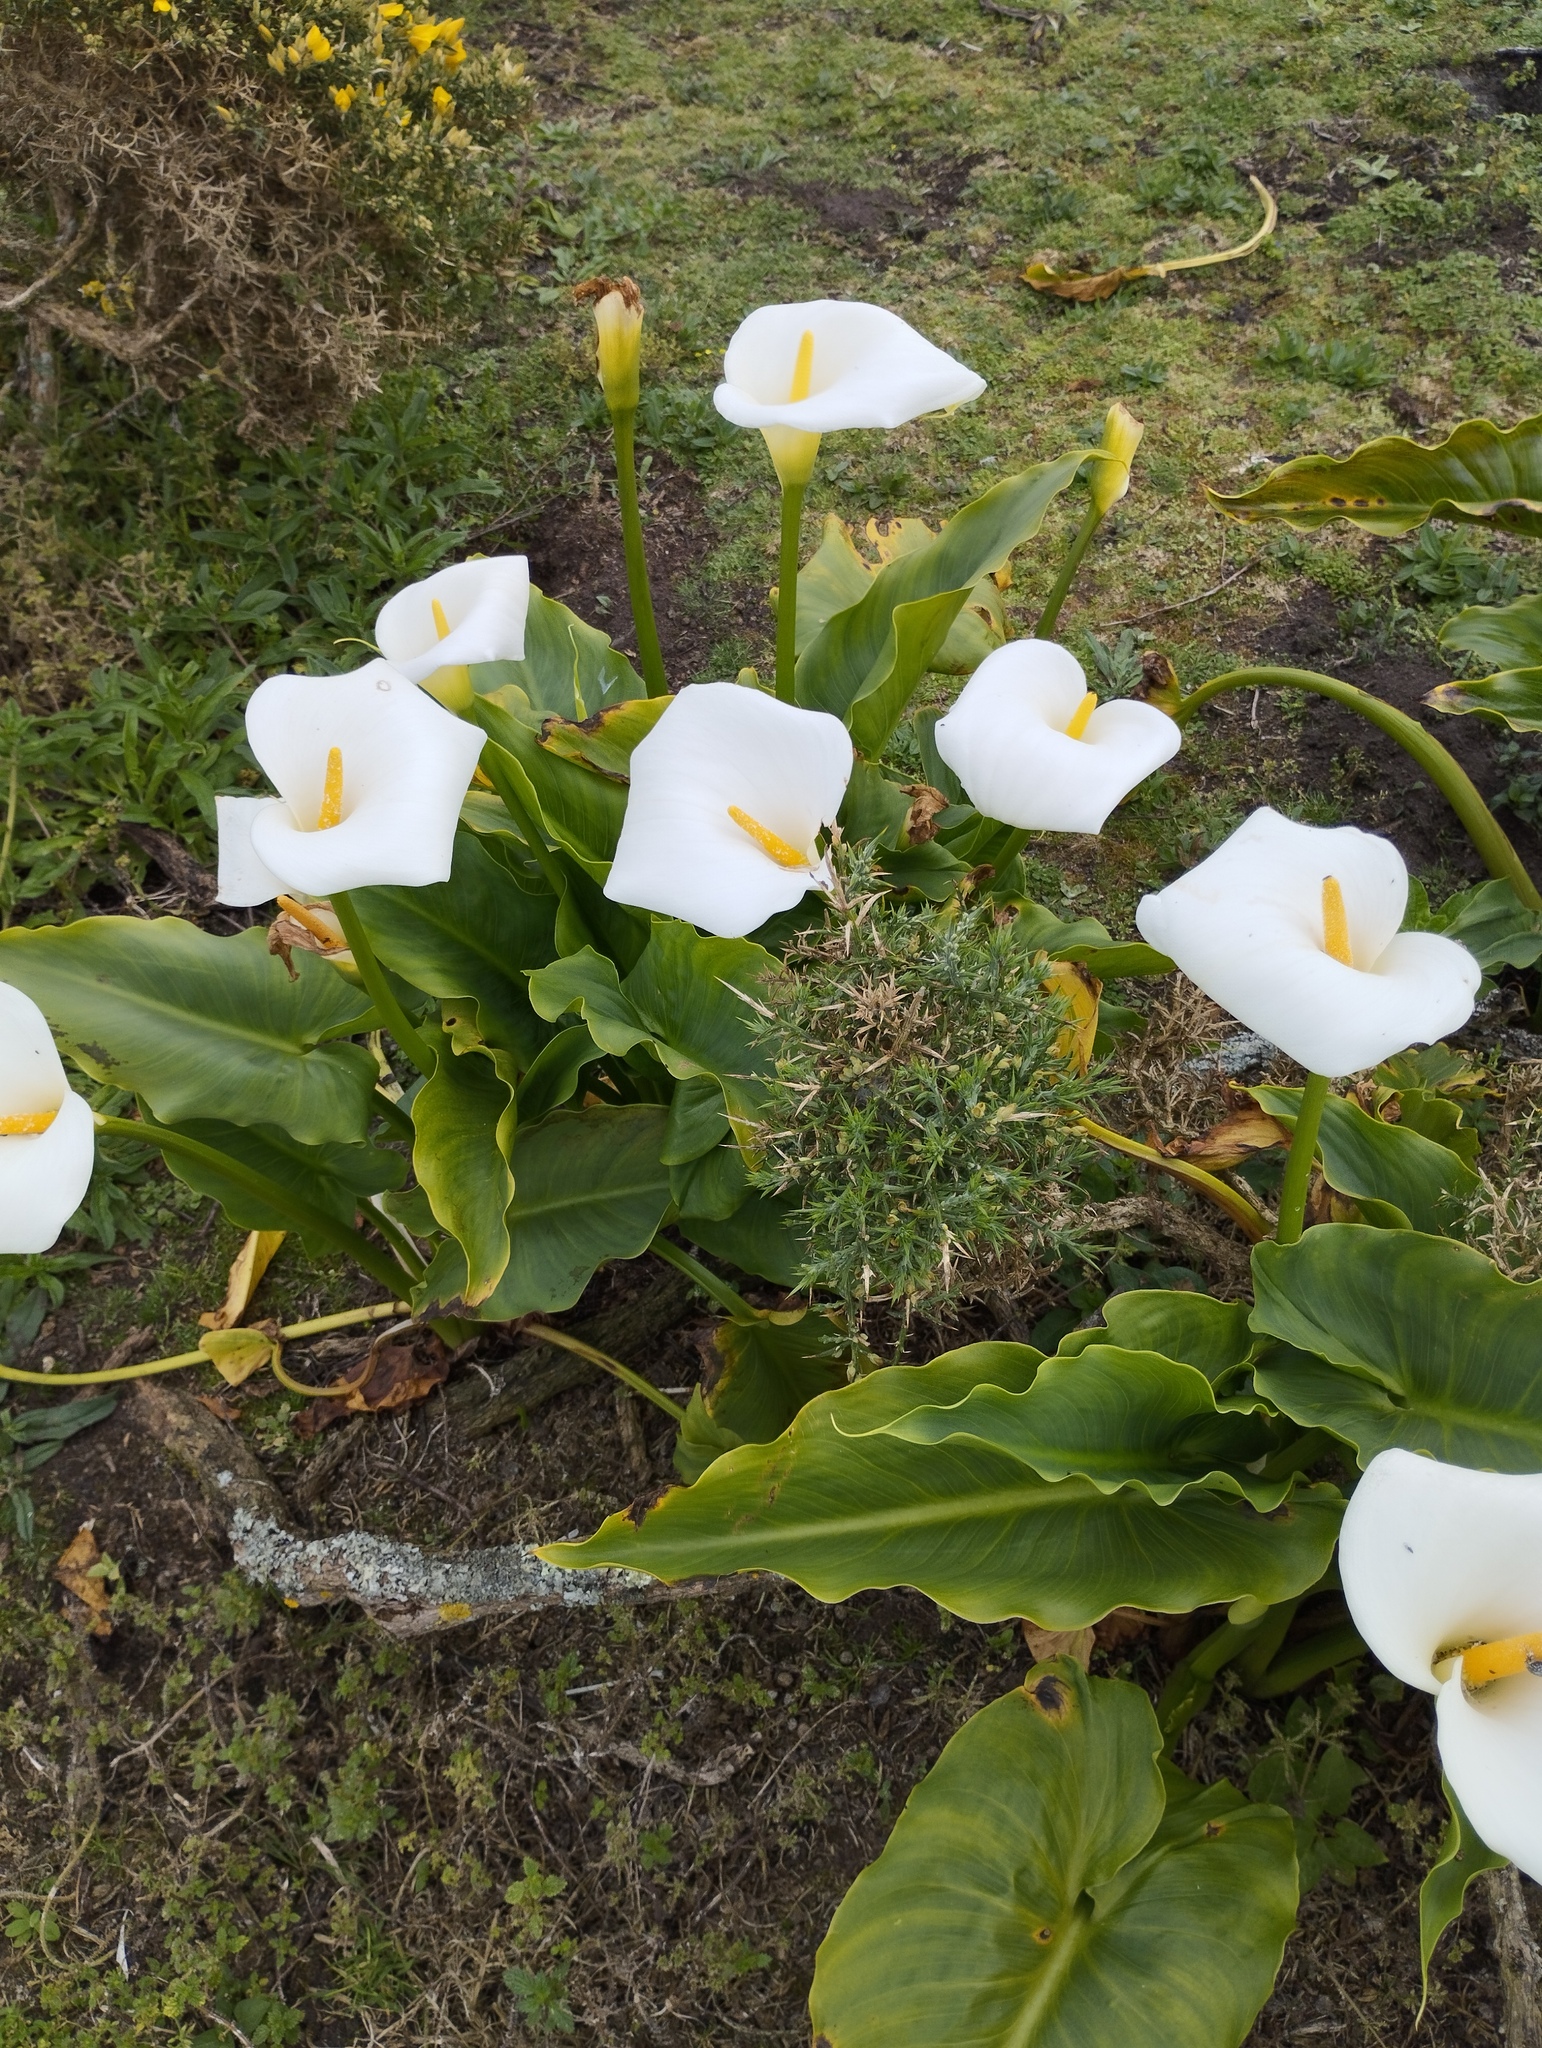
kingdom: Plantae
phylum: Tracheophyta
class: Liliopsida
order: Alismatales
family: Araceae
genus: Zantedeschia
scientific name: Zantedeschia aethiopica
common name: Altar-lily
